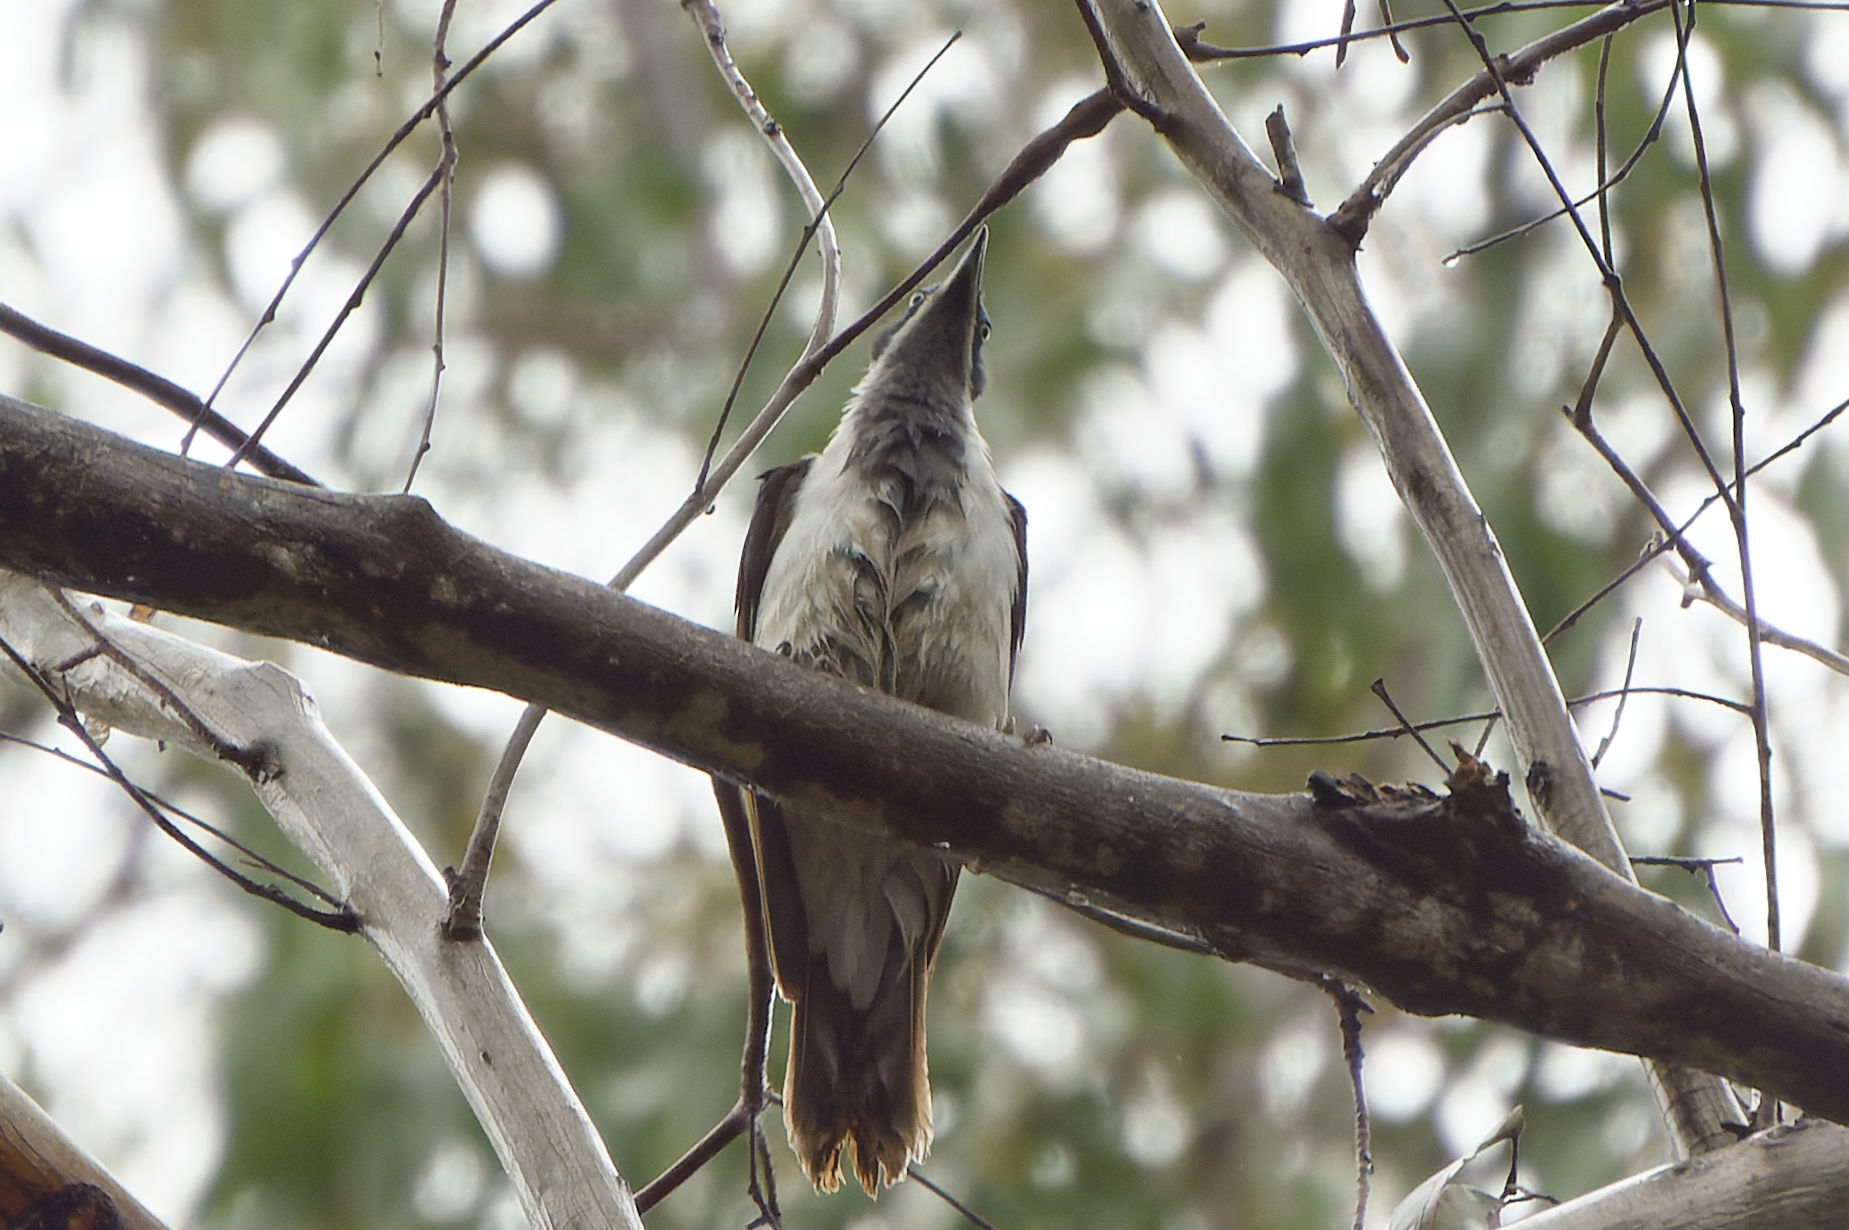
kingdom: Animalia
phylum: Chordata
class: Aves
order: Passeriformes
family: Meliphagidae
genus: Entomyzon
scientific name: Entomyzon cyanotis
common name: Blue-faced honeyeater
